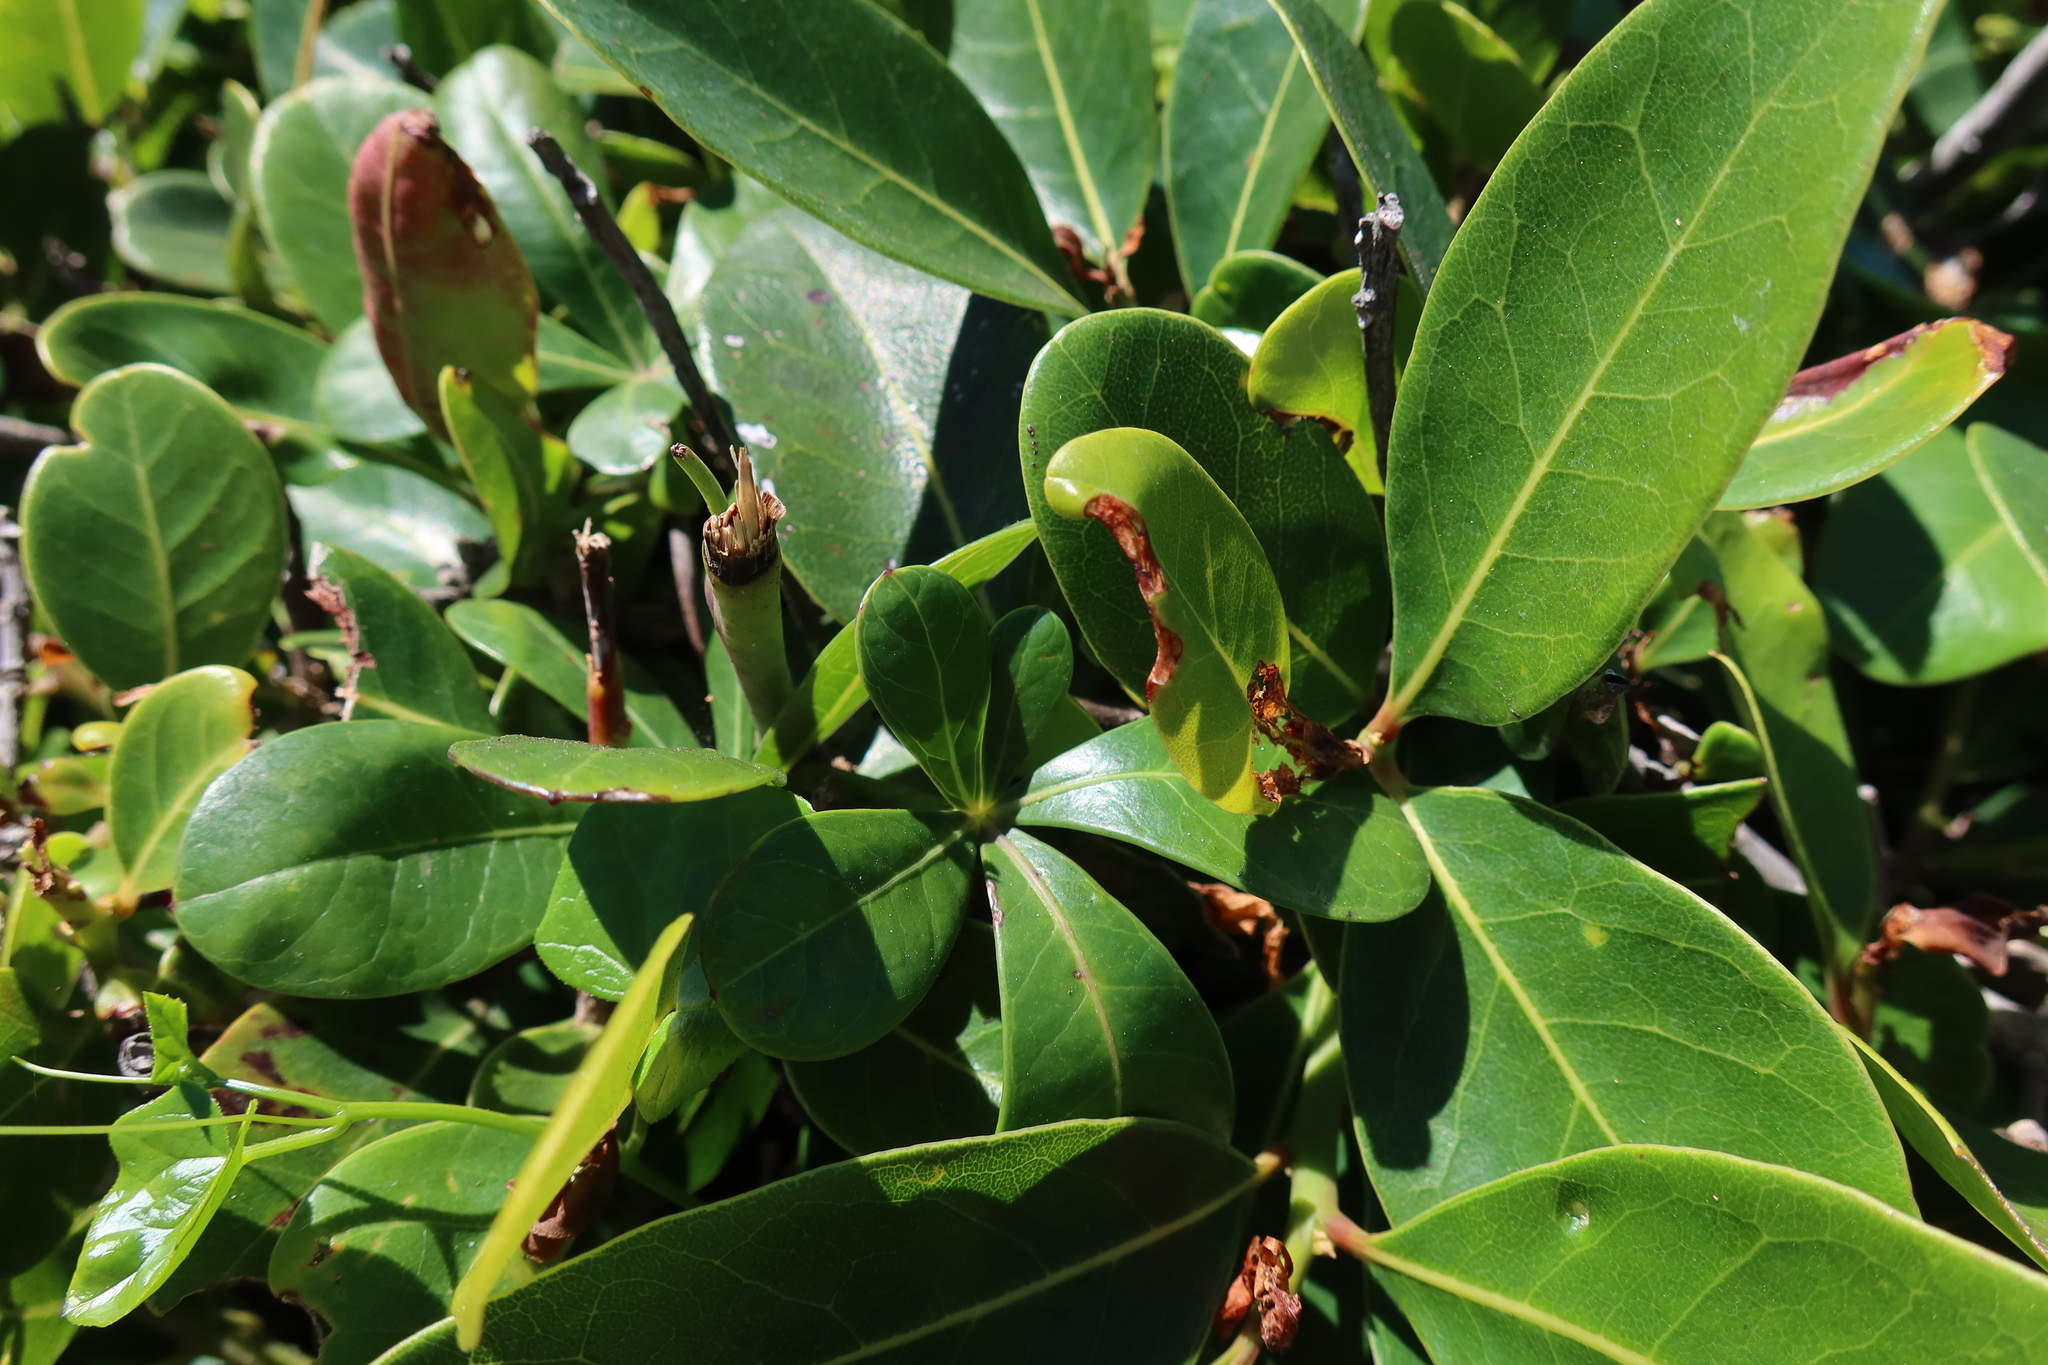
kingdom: Plantae
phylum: Tracheophyta
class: Magnoliopsida
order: Ericales
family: Sapotaceae
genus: Sideroxylon
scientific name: Sideroxylon inerme
